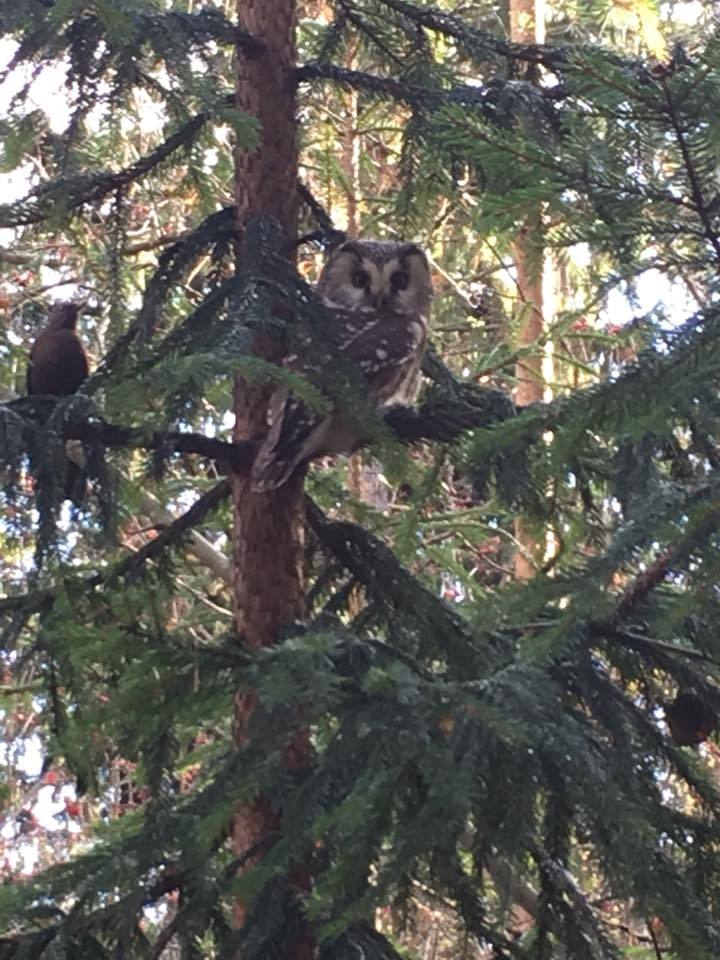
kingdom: Animalia
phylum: Chordata
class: Aves
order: Strigiformes
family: Strigidae
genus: Aegolius
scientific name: Aegolius funereus
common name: Boreal owl
